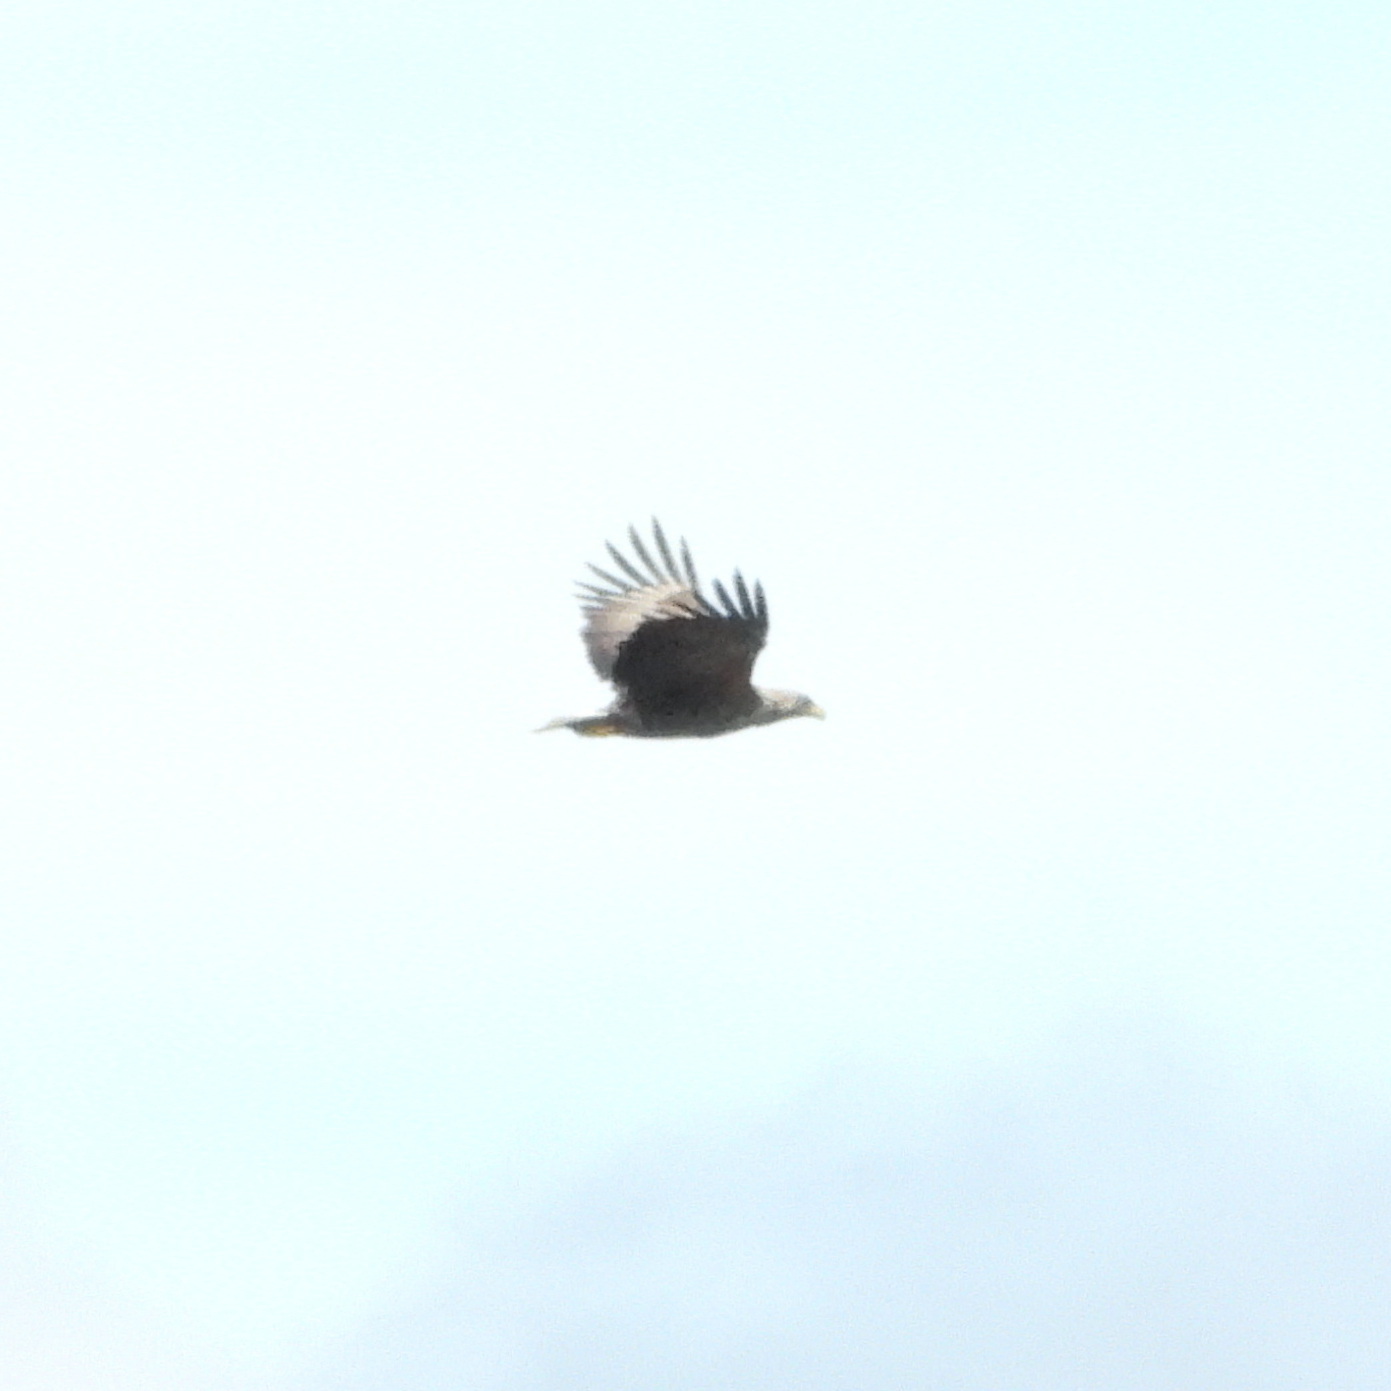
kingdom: Animalia
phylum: Chordata
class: Aves
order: Accipitriformes
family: Accipitridae
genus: Haliaeetus
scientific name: Haliaeetus albicilla
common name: White-tailed eagle
